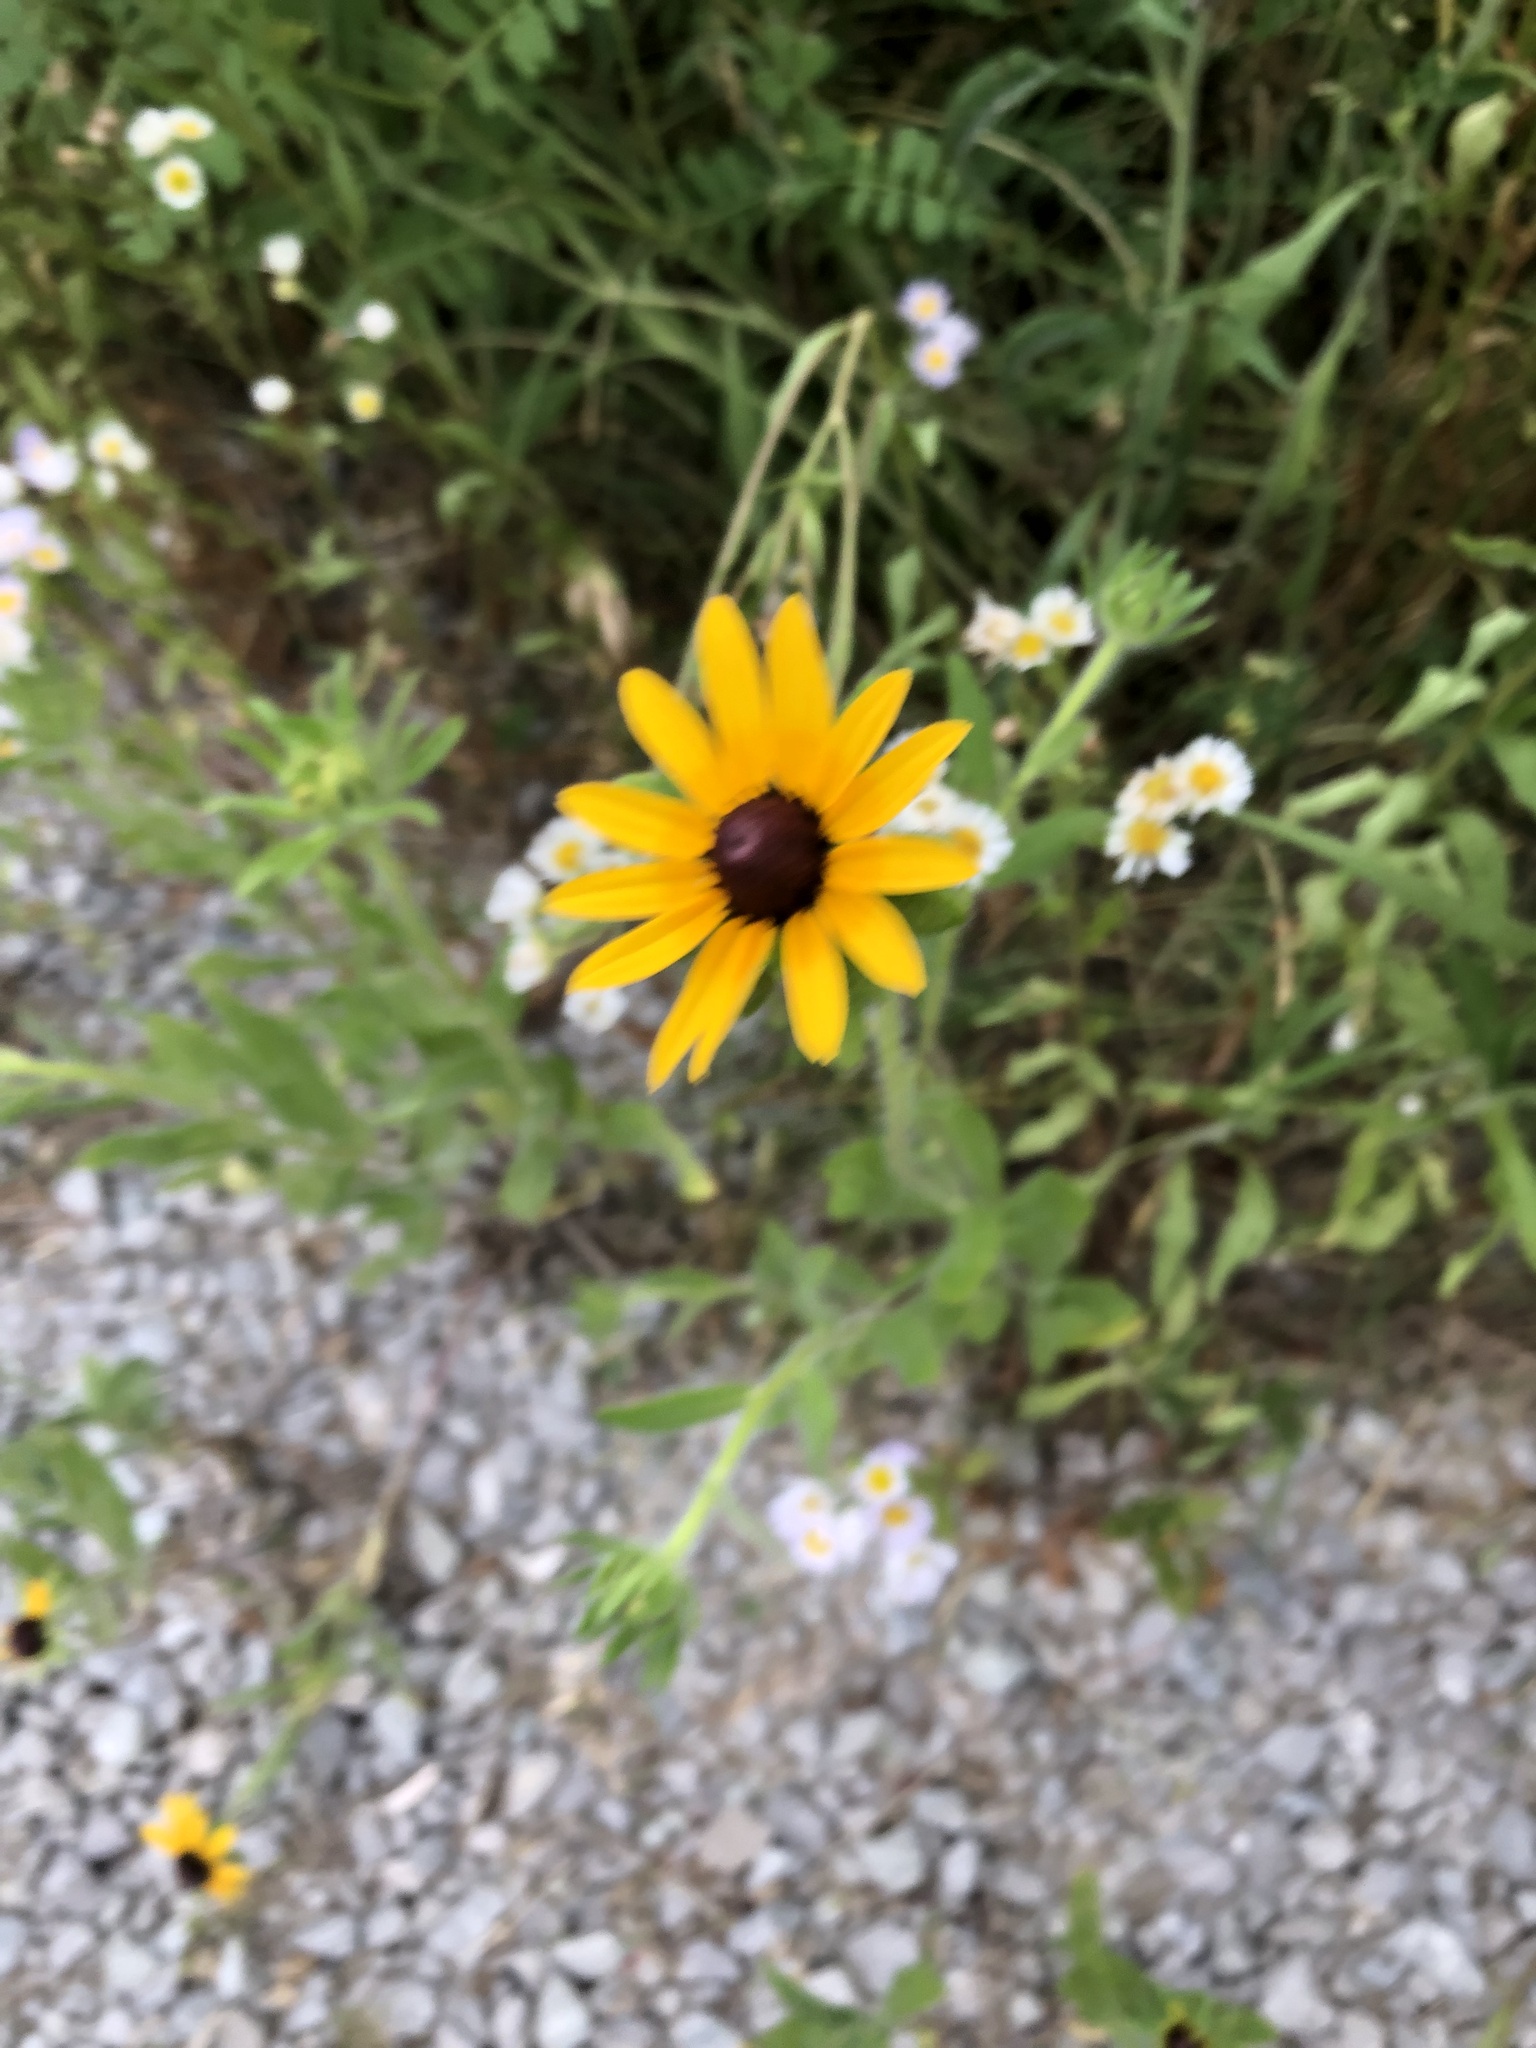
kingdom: Plantae
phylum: Tracheophyta
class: Magnoliopsida
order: Asterales
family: Asteraceae
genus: Rudbeckia
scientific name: Rudbeckia hirta
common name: Black-eyed-susan
